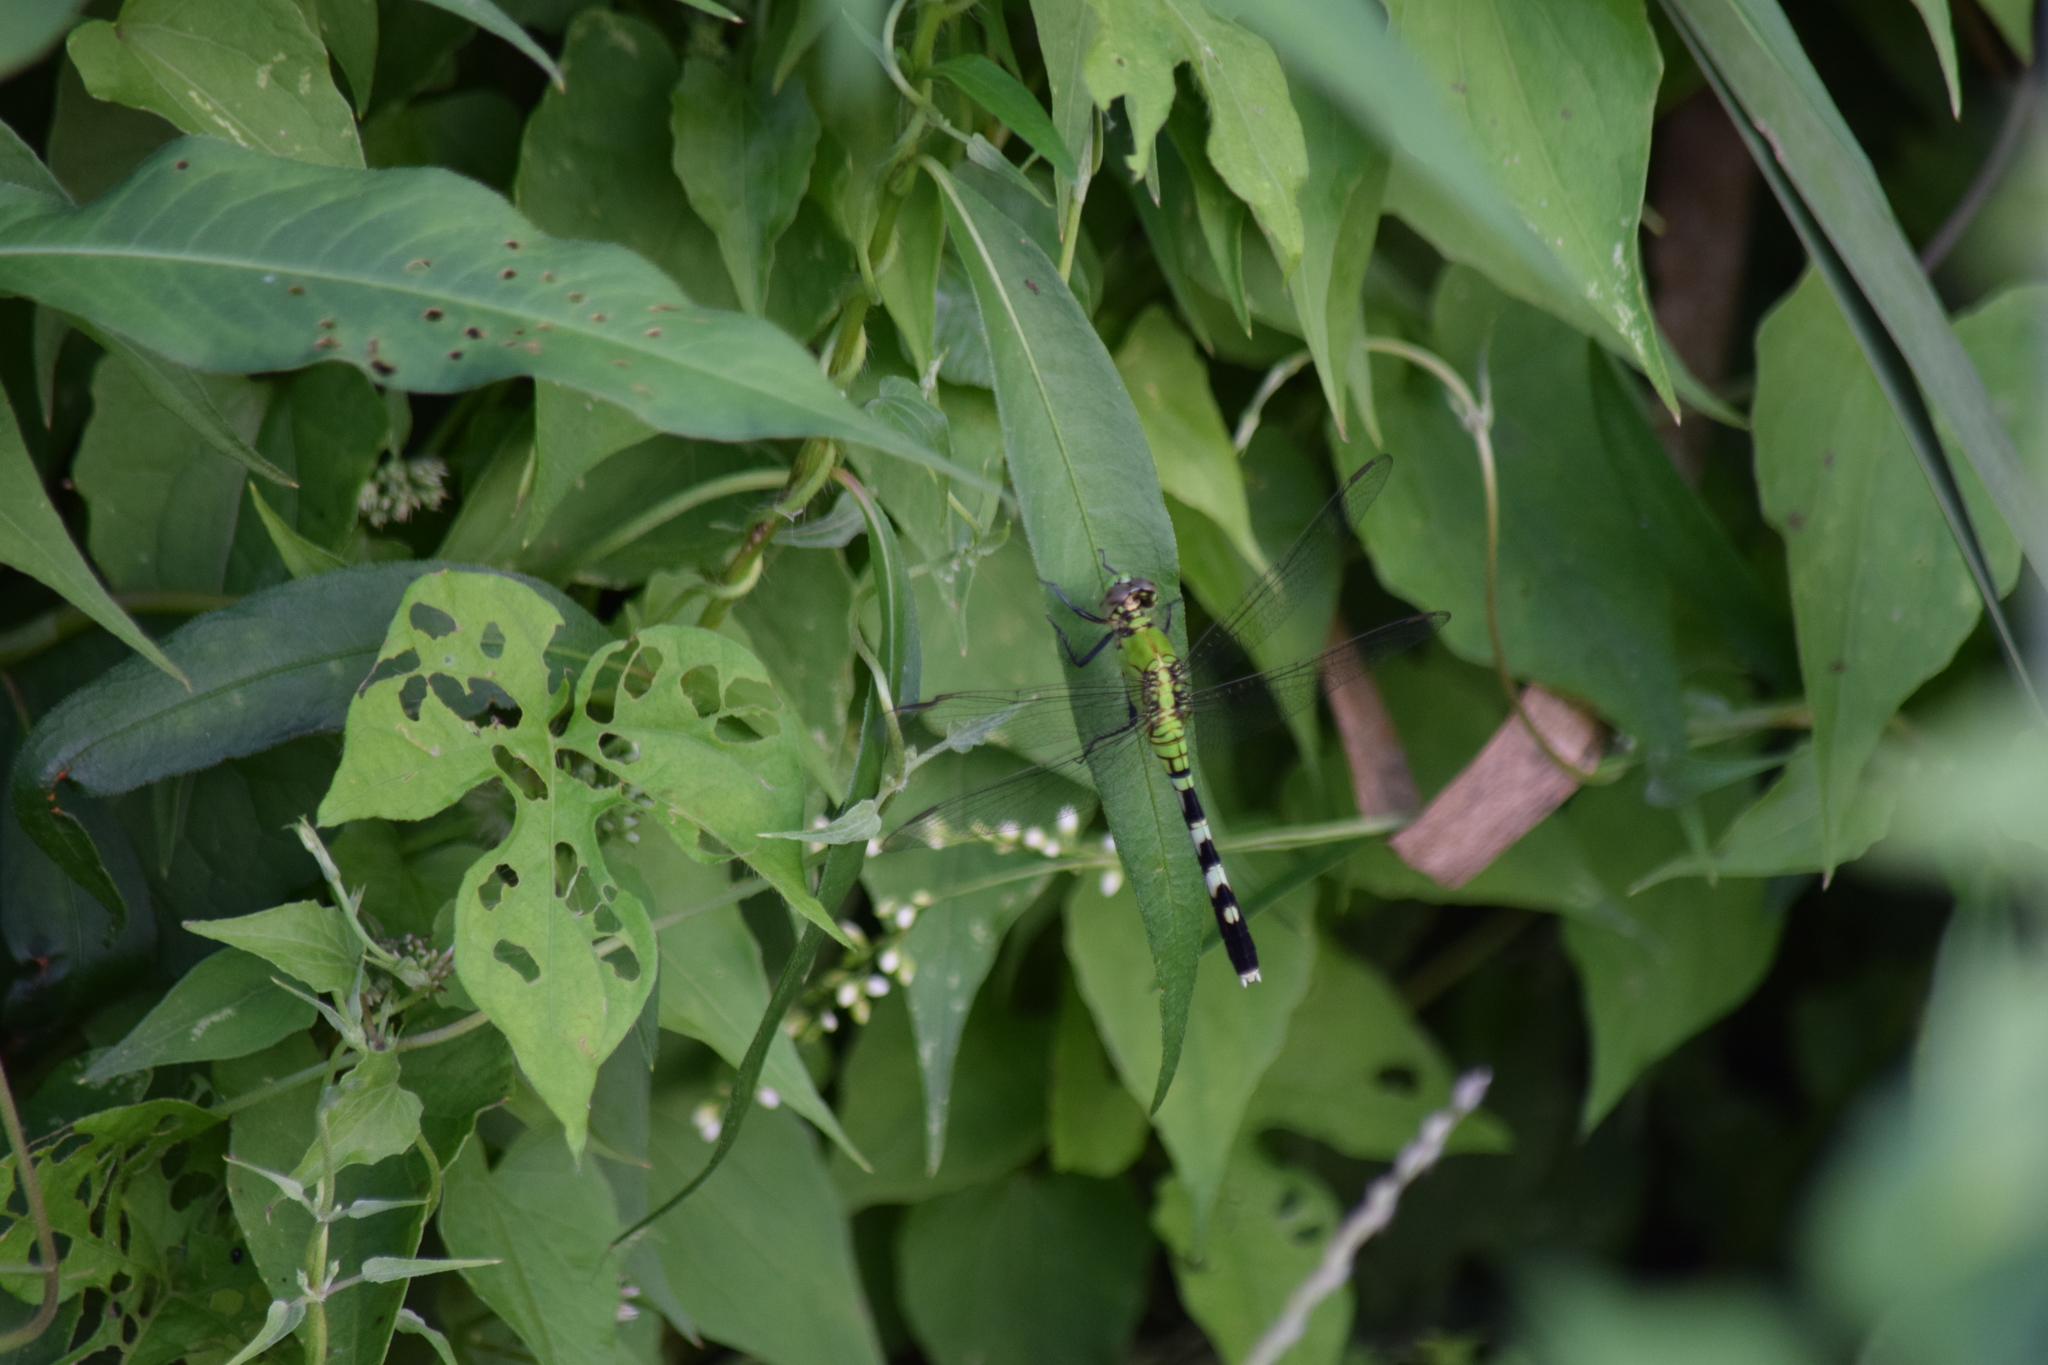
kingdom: Animalia
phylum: Arthropoda
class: Insecta
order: Odonata
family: Libellulidae
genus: Erythemis
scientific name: Erythemis simplicicollis
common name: Eastern pondhawk
